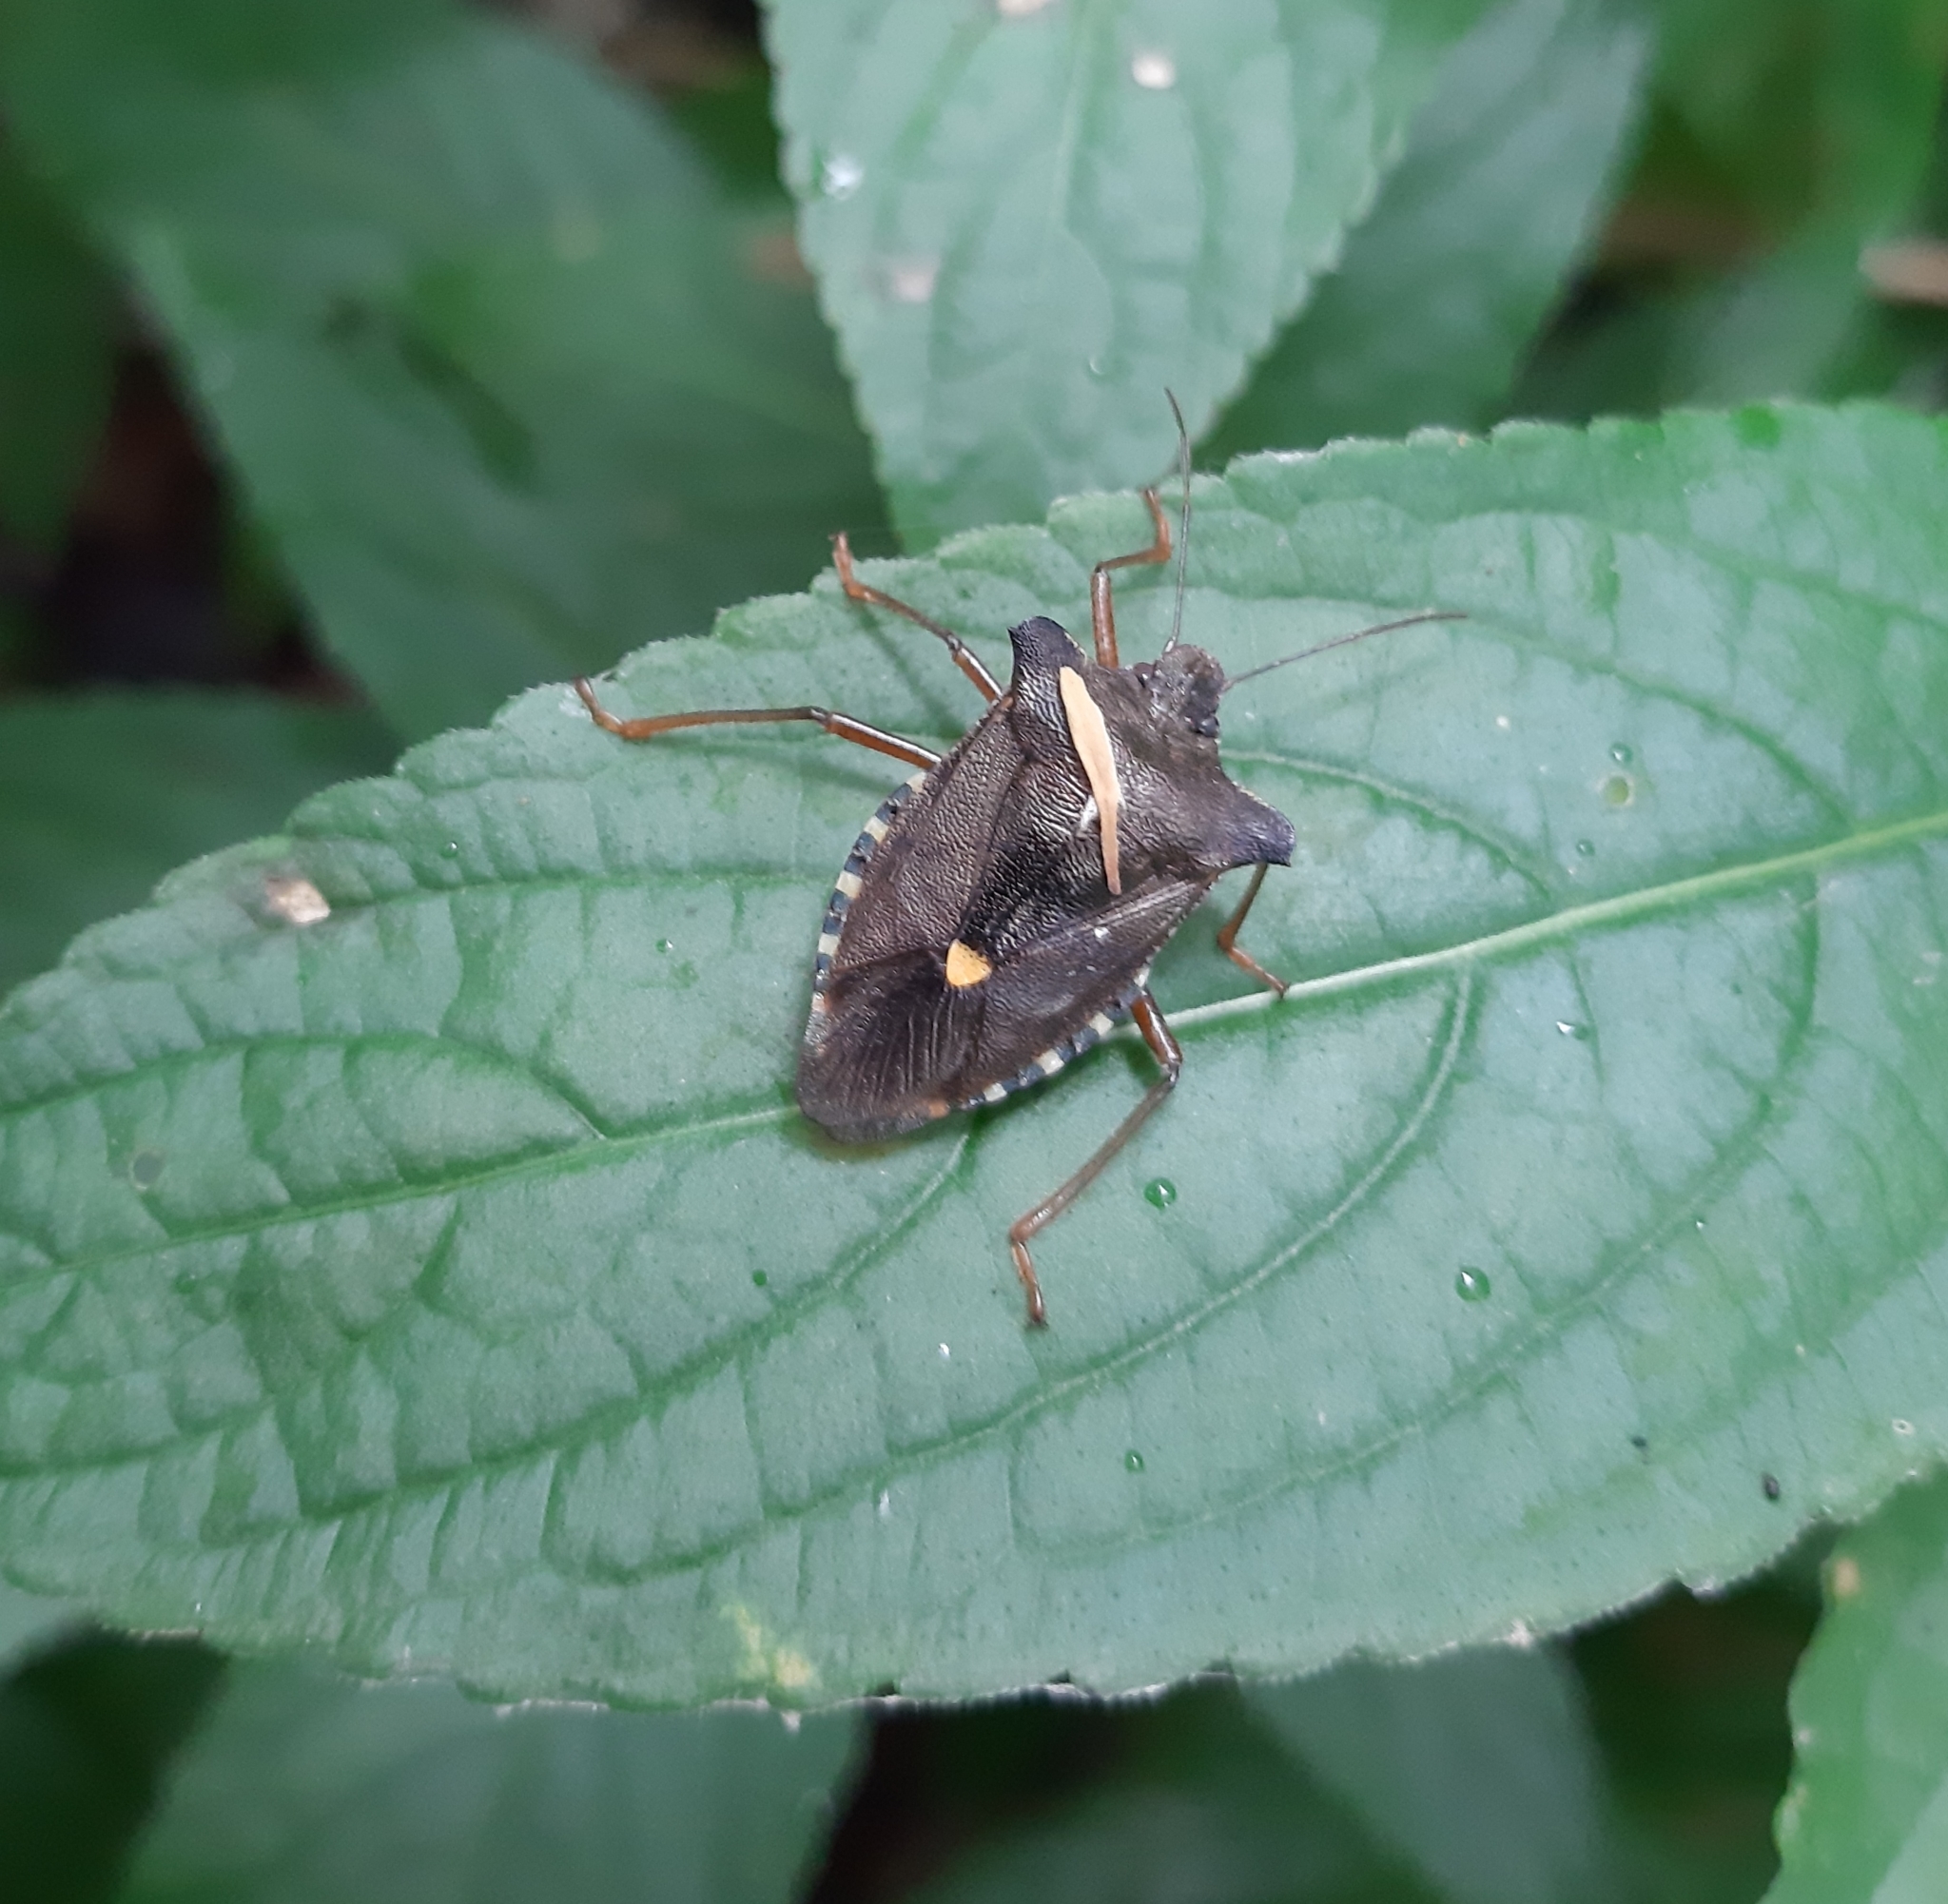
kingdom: Animalia
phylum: Arthropoda
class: Insecta
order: Hemiptera
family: Pentatomidae
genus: Pentatoma
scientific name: Pentatoma rufipes
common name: Forest bug
